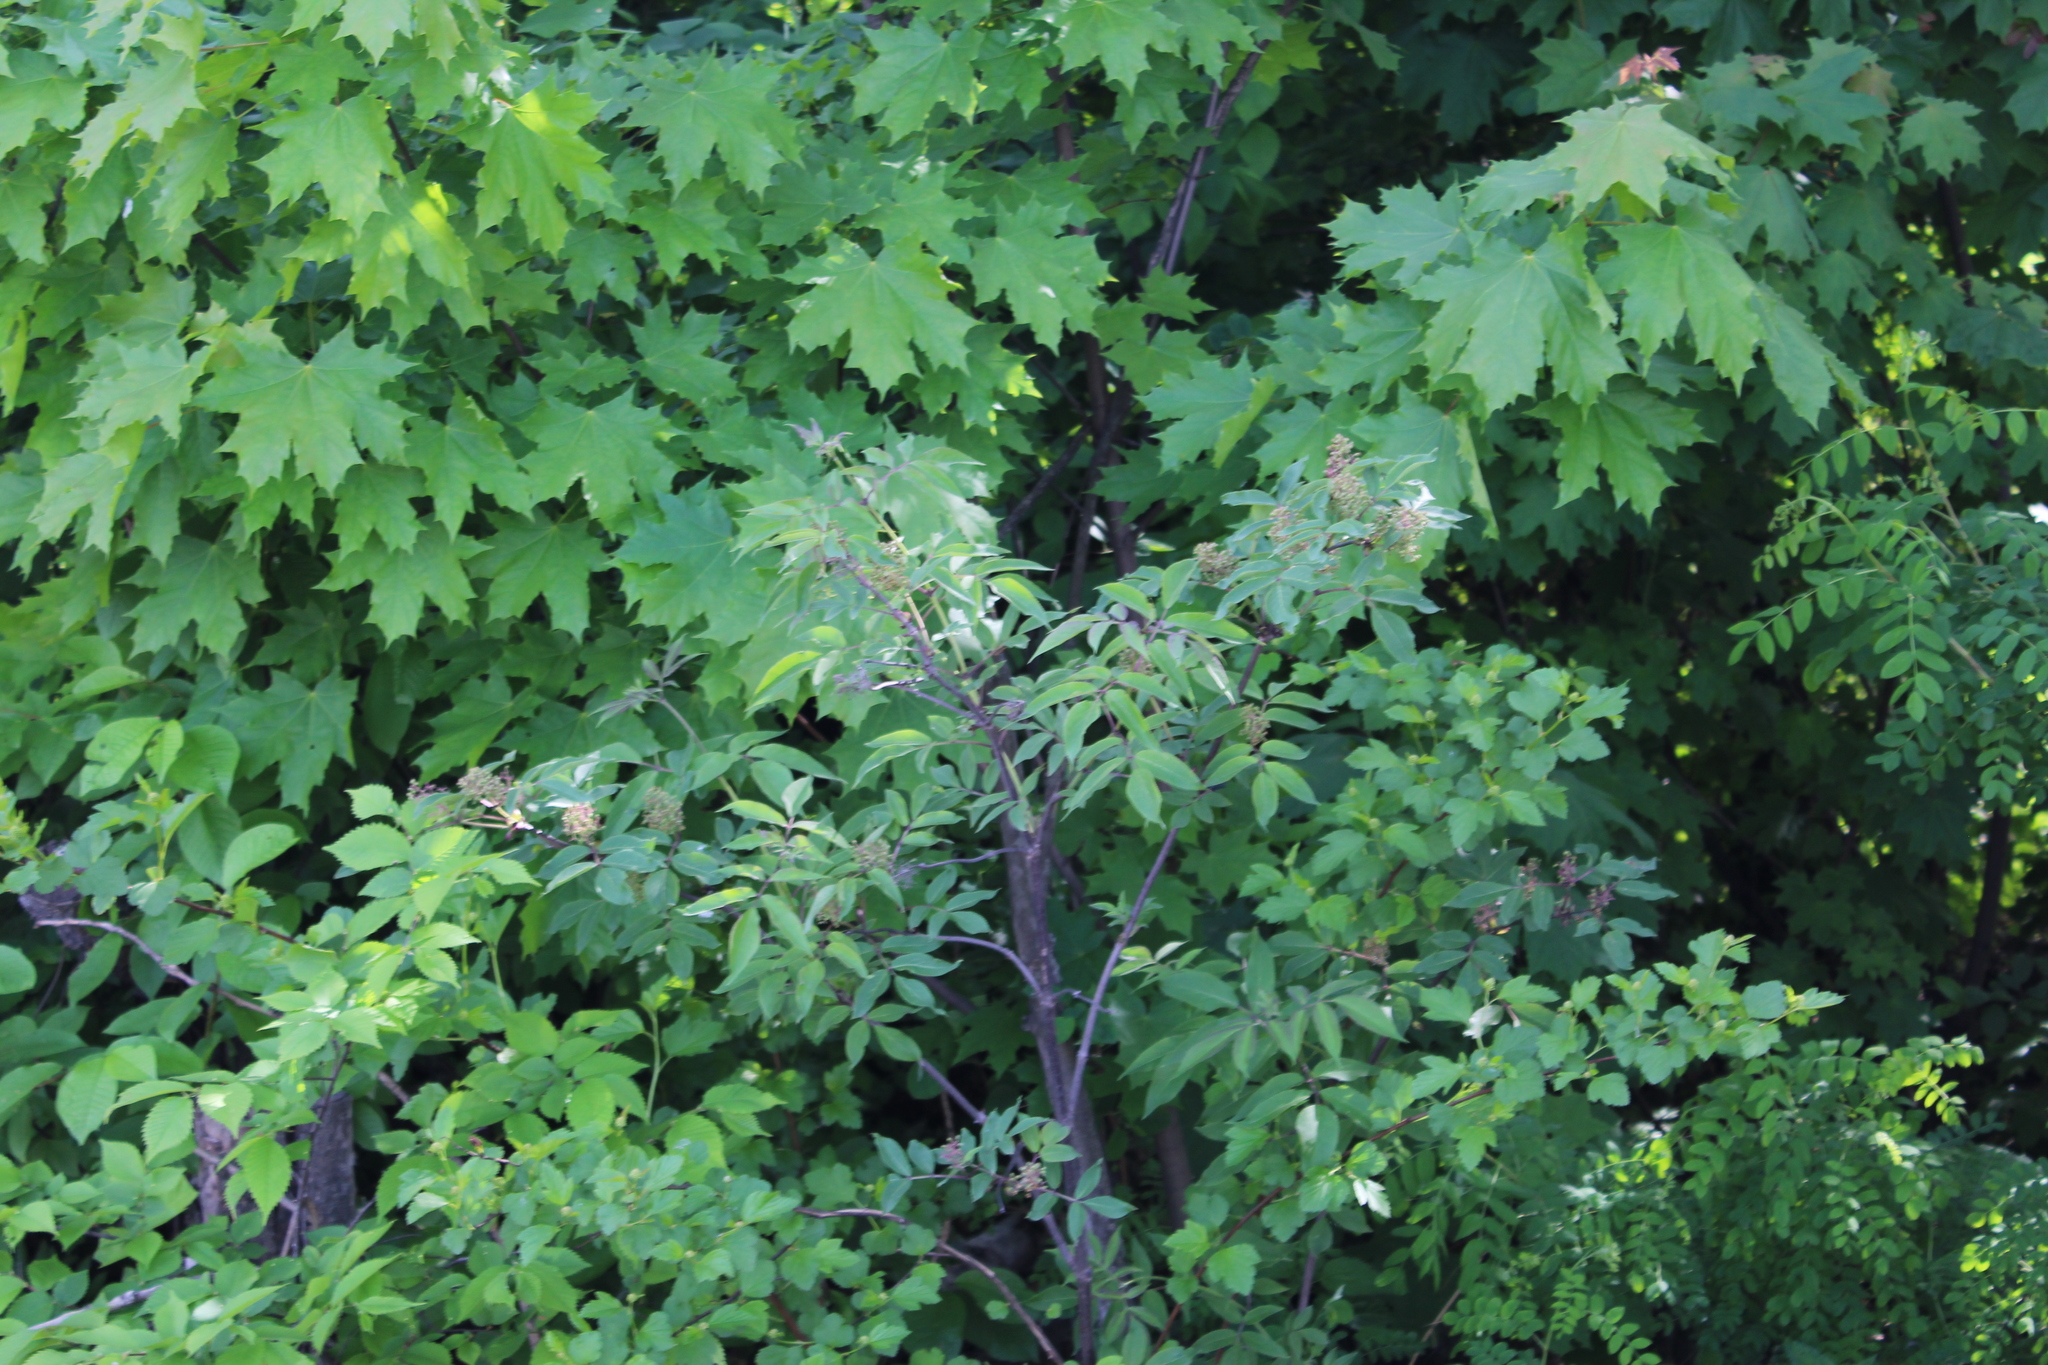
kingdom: Plantae
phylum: Tracheophyta
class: Magnoliopsida
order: Dipsacales
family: Viburnaceae
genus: Sambucus
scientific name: Sambucus racemosa
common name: Red-berried elder
